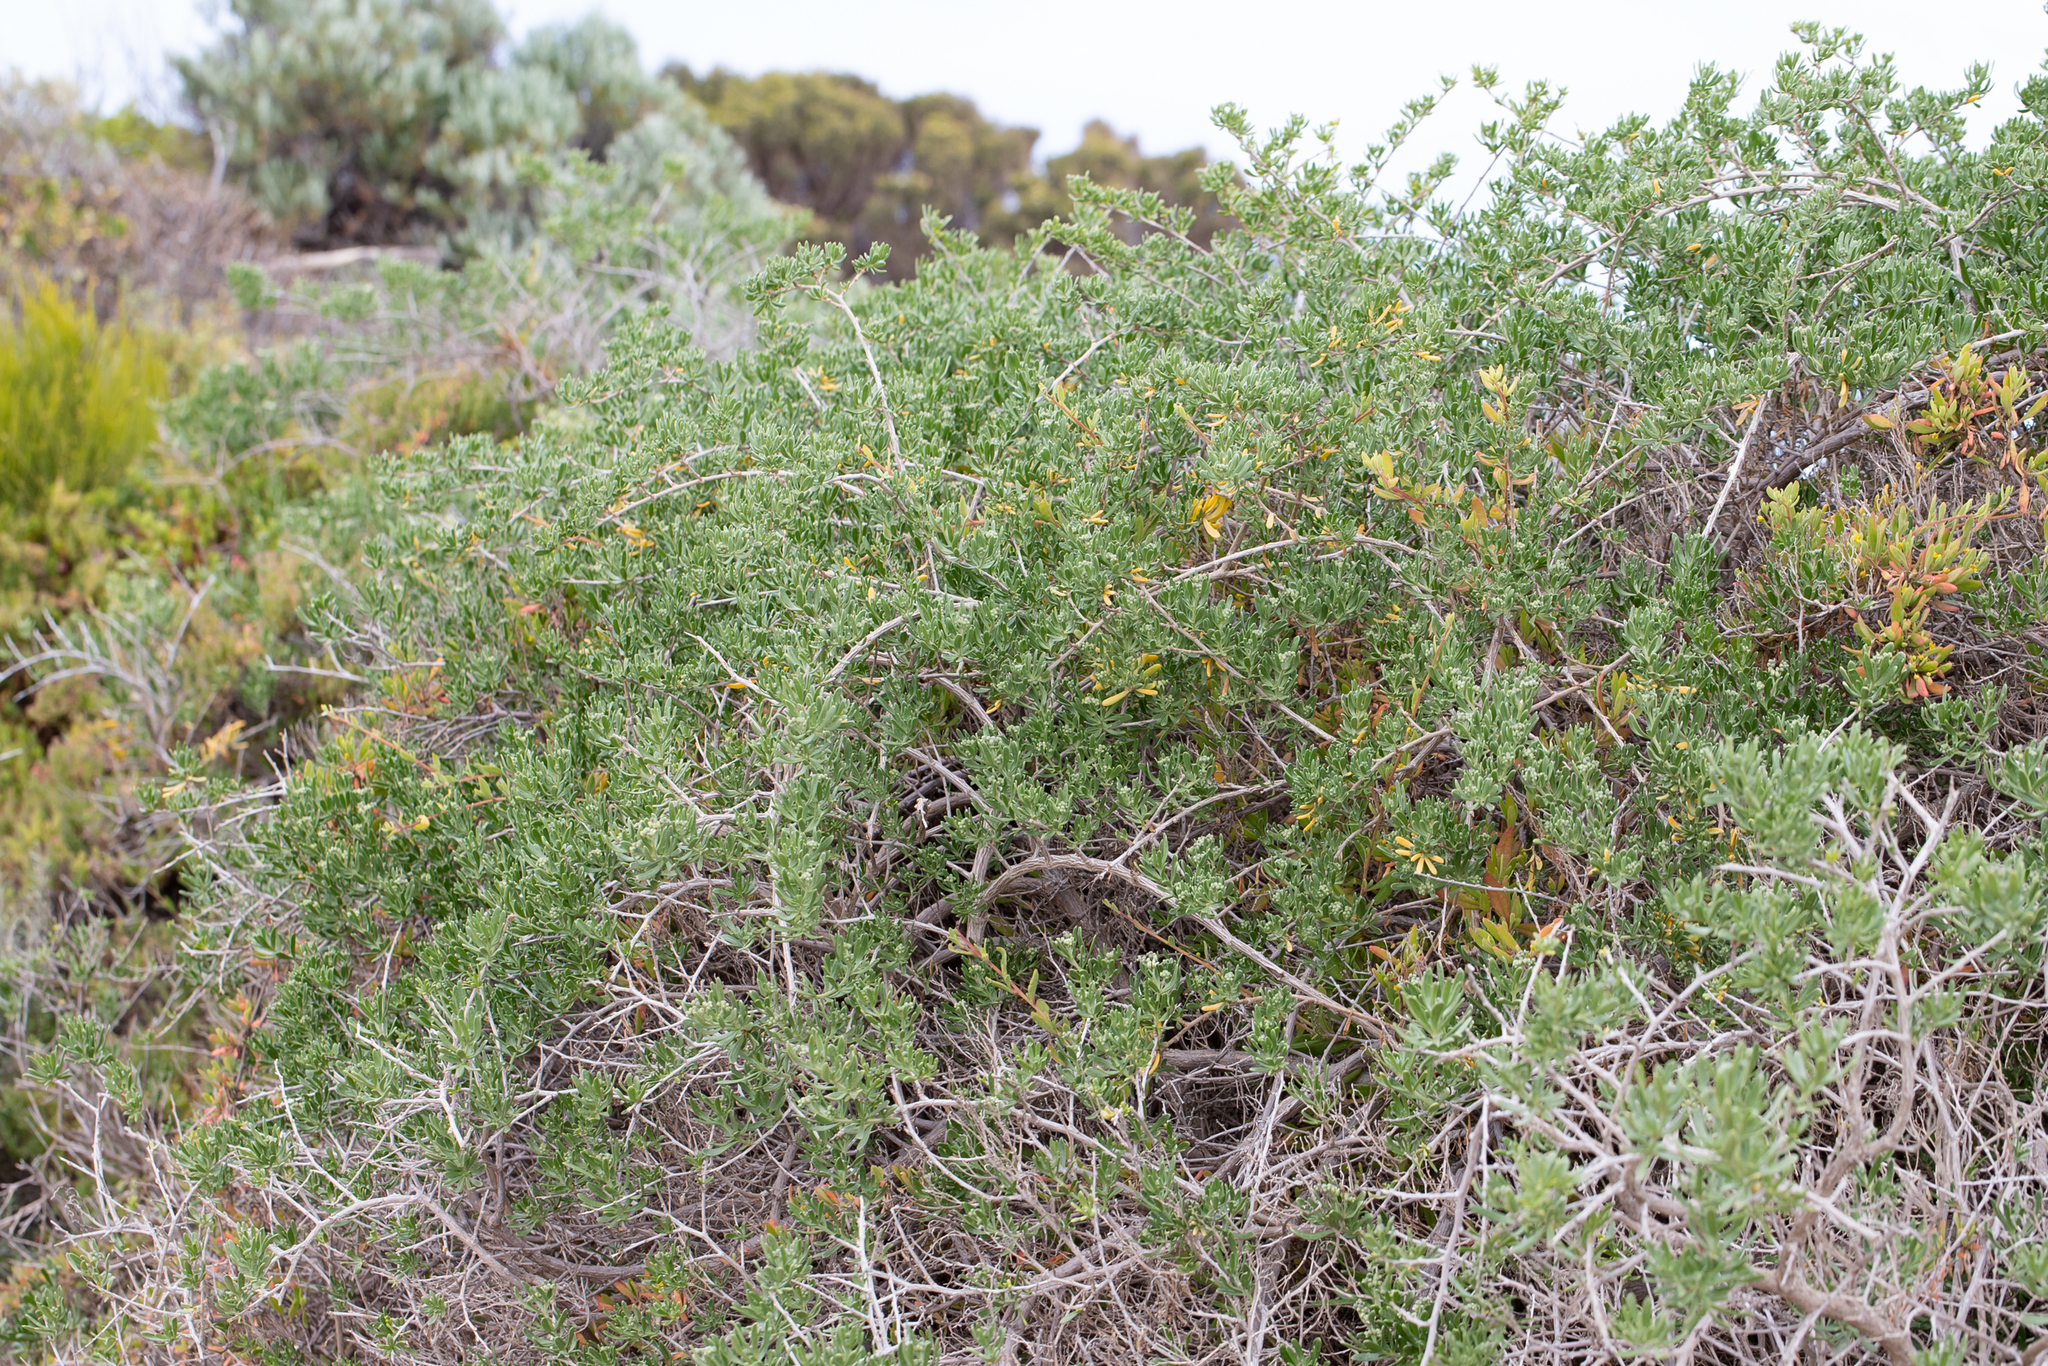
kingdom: Plantae
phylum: Tracheophyta
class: Magnoliopsida
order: Sapindales
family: Nitrariaceae
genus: Nitraria
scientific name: Nitraria billardierei
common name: Dillonbush
